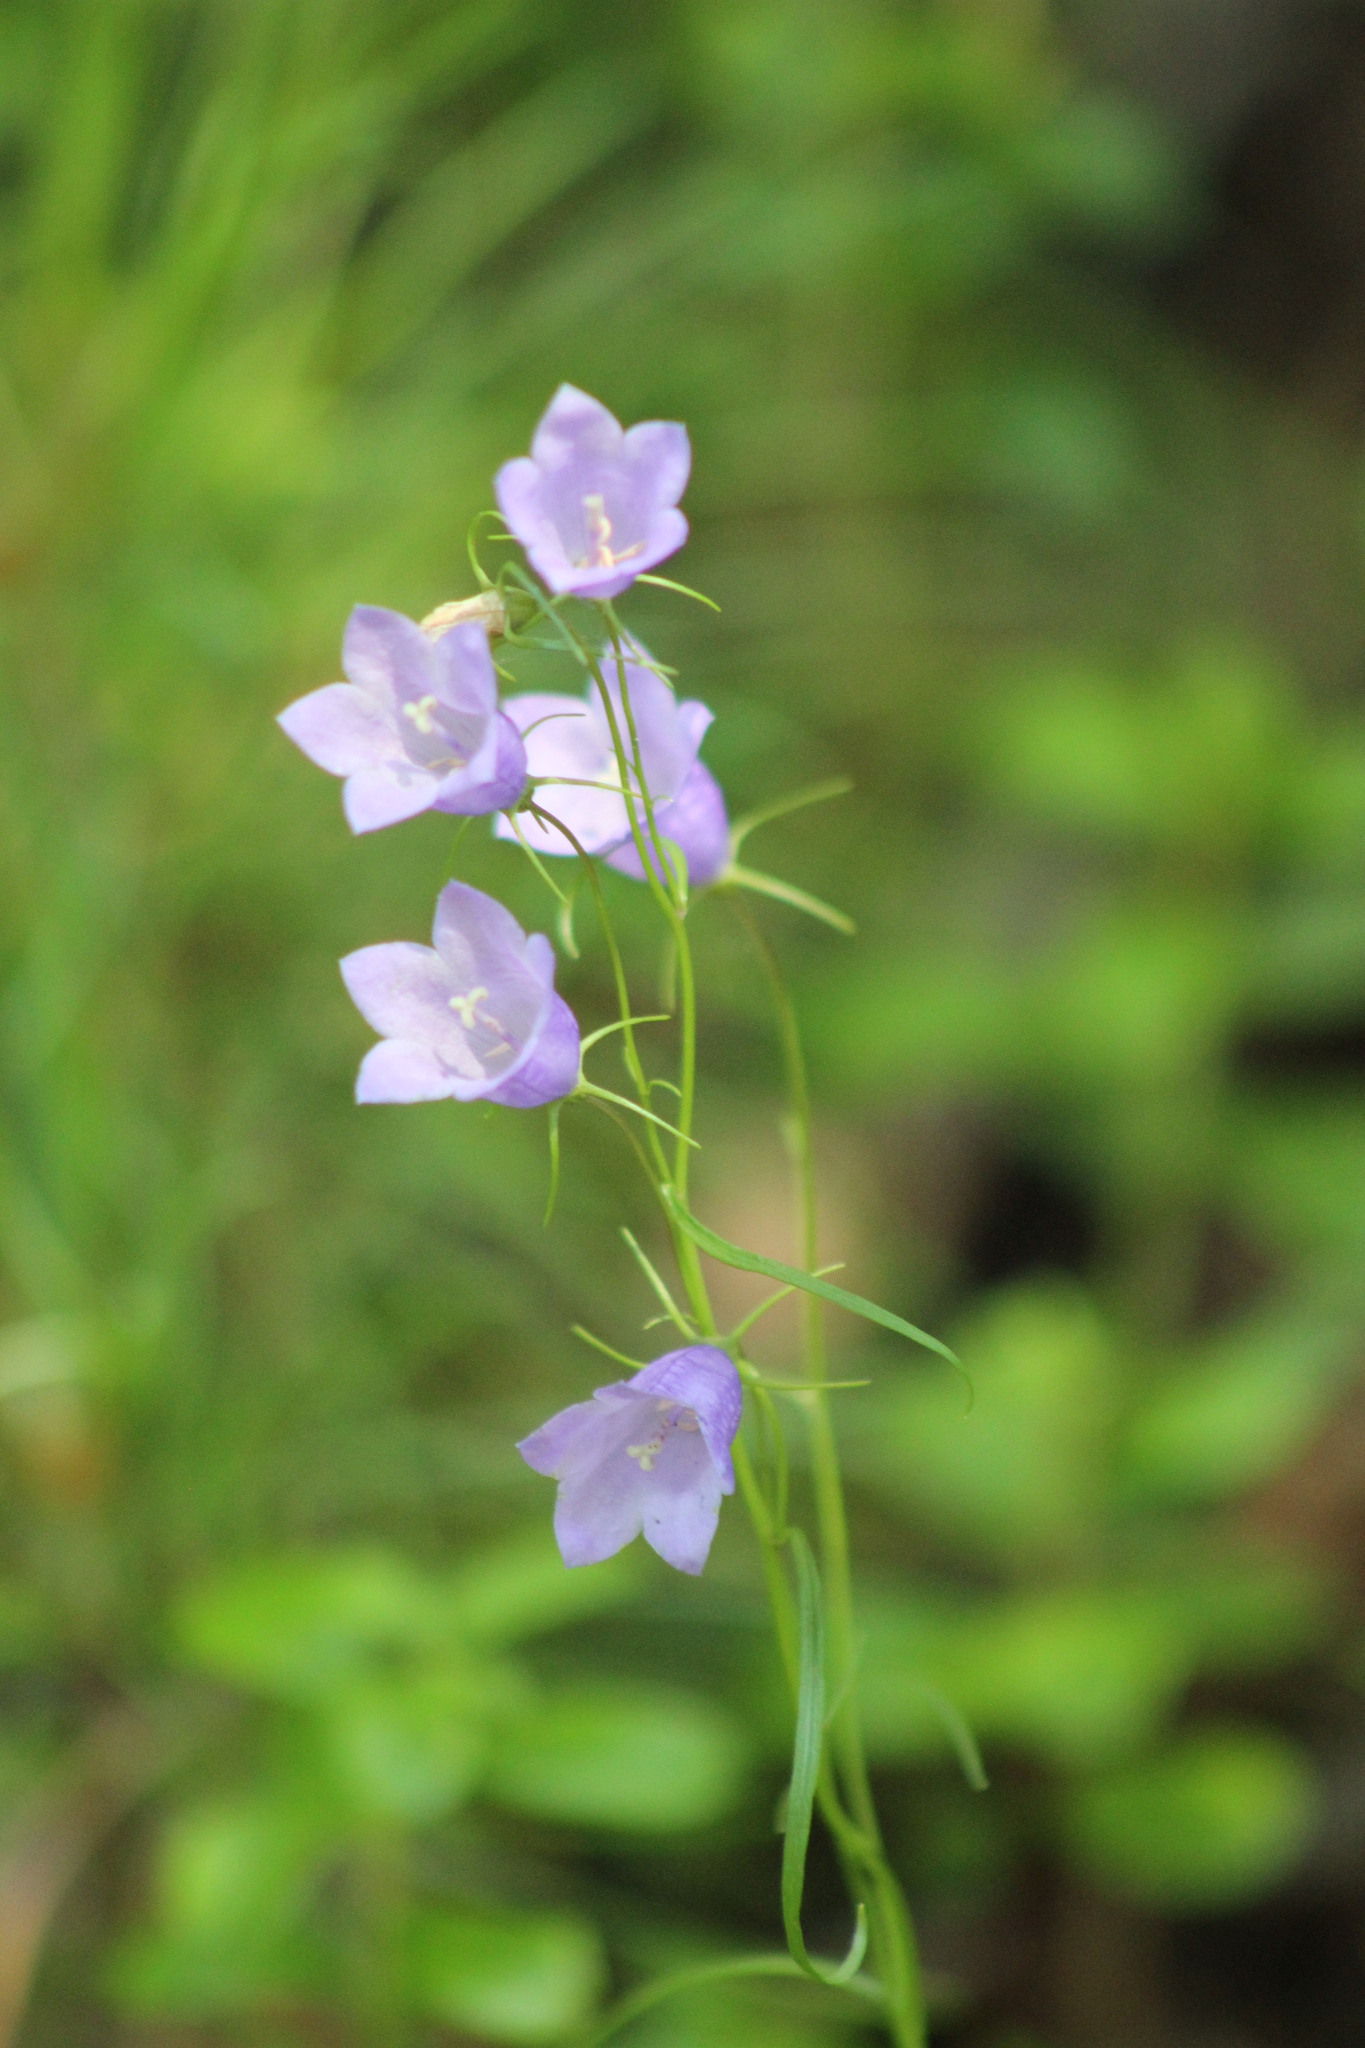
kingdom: Plantae
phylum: Tracheophyta
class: Magnoliopsida
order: Asterales
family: Campanulaceae
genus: Campanula
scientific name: Campanula rotundifolia
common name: Harebell
